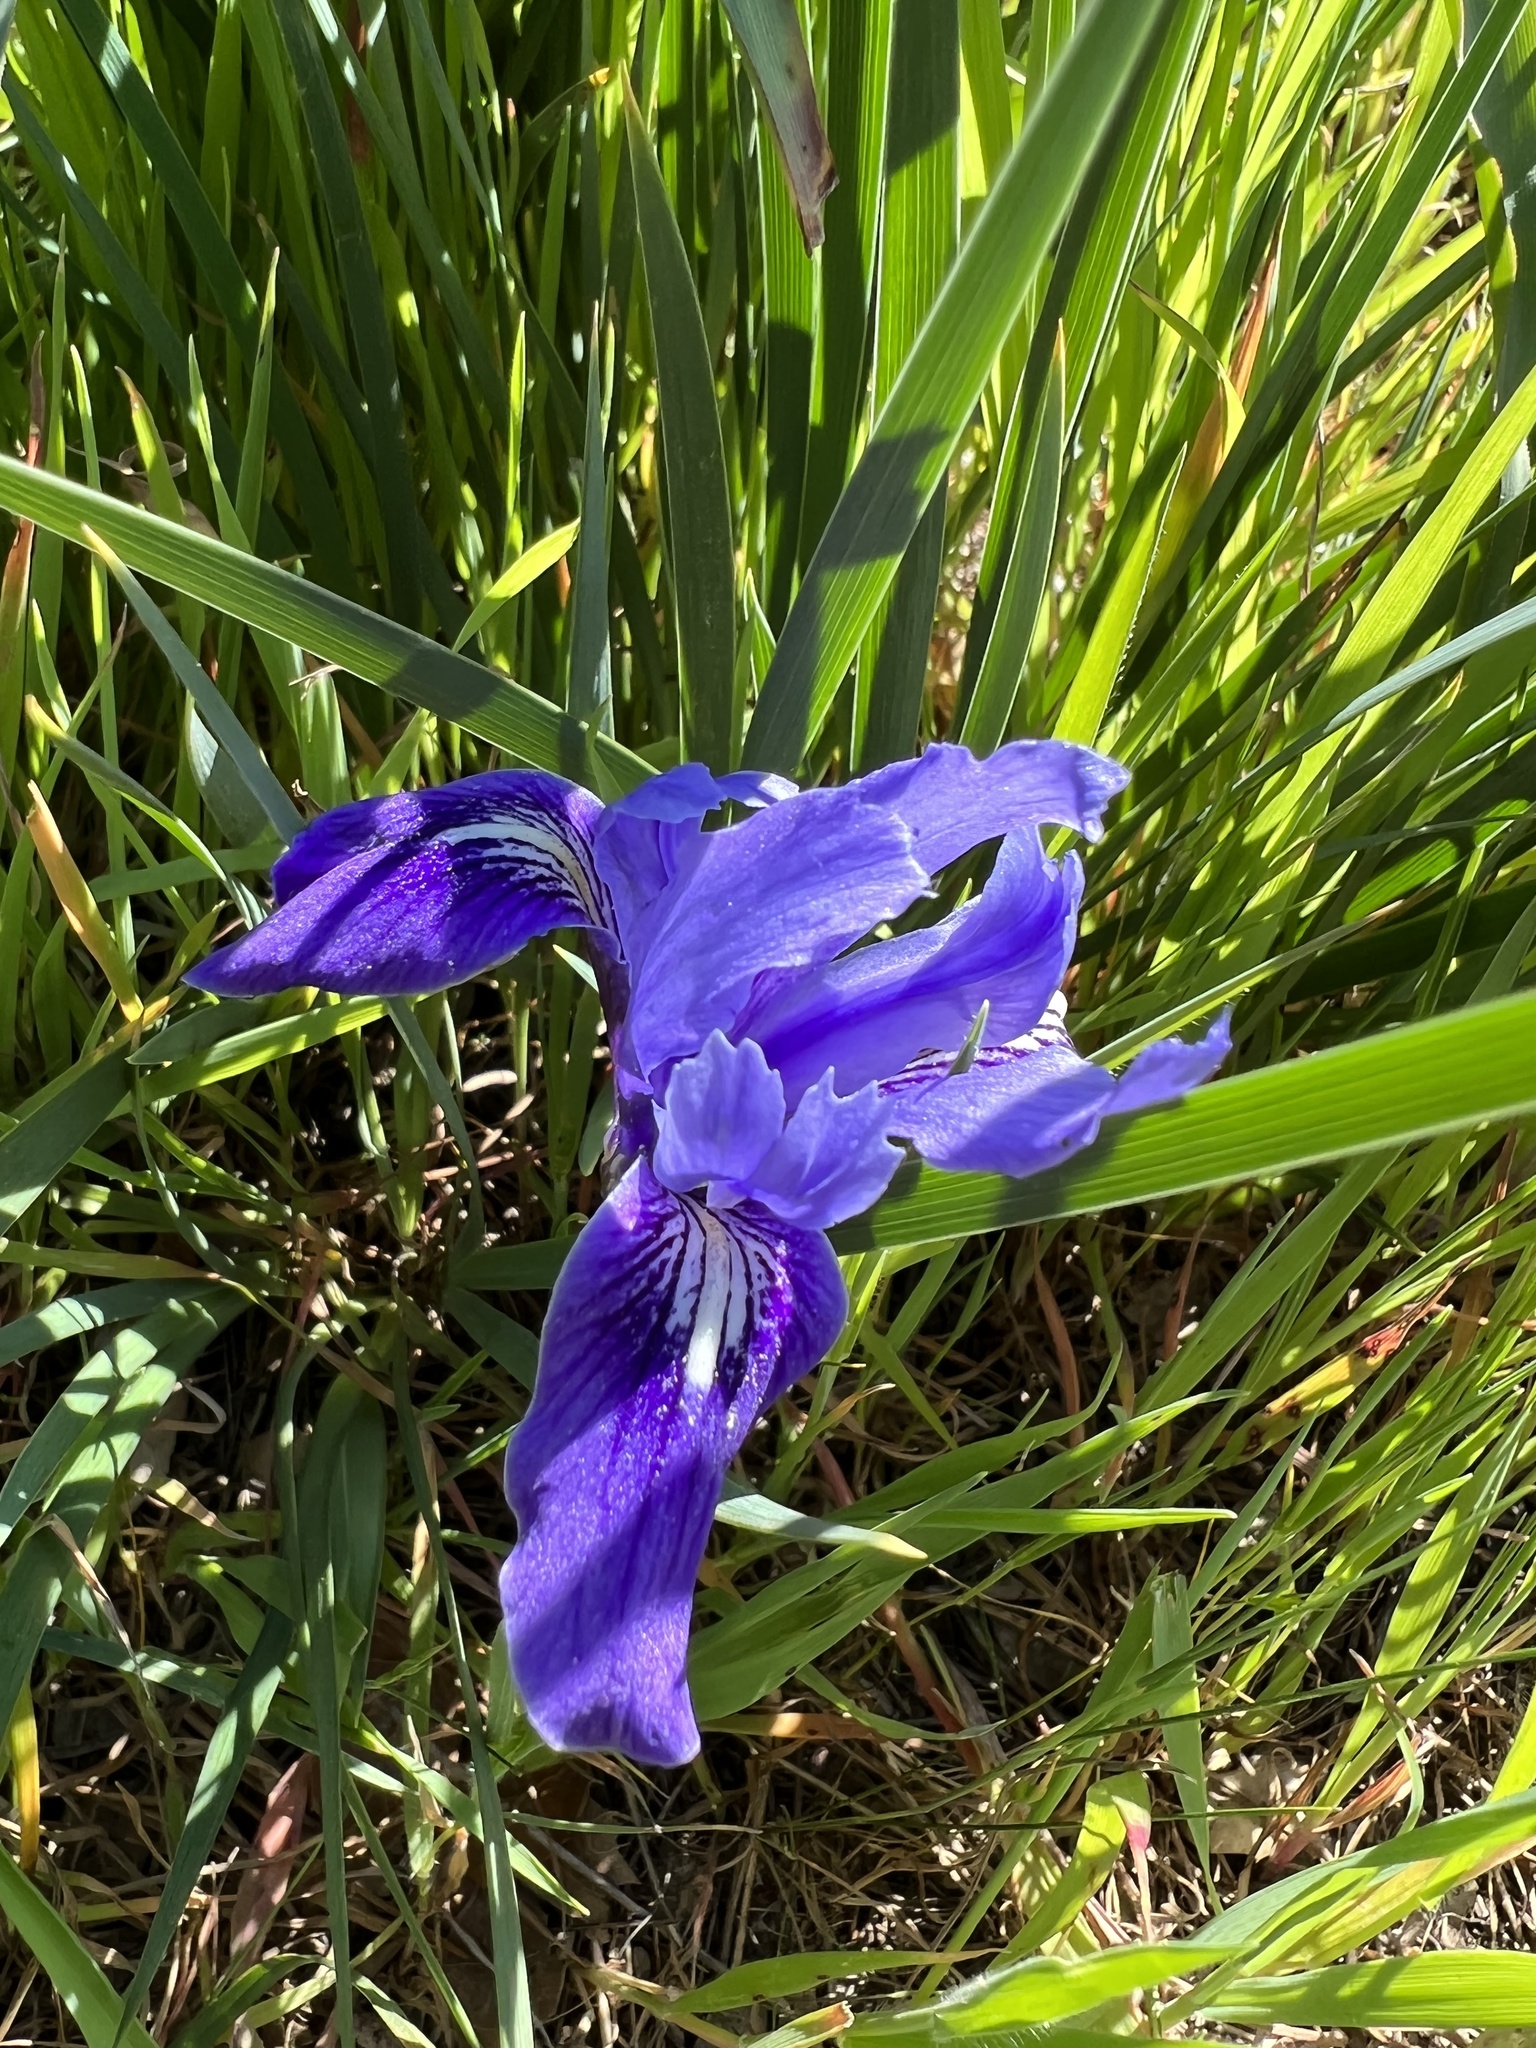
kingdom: Plantae
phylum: Tracheophyta
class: Liliopsida
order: Asparagales
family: Iridaceae
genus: Iris
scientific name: Iris macrosiphon
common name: Ground iris
